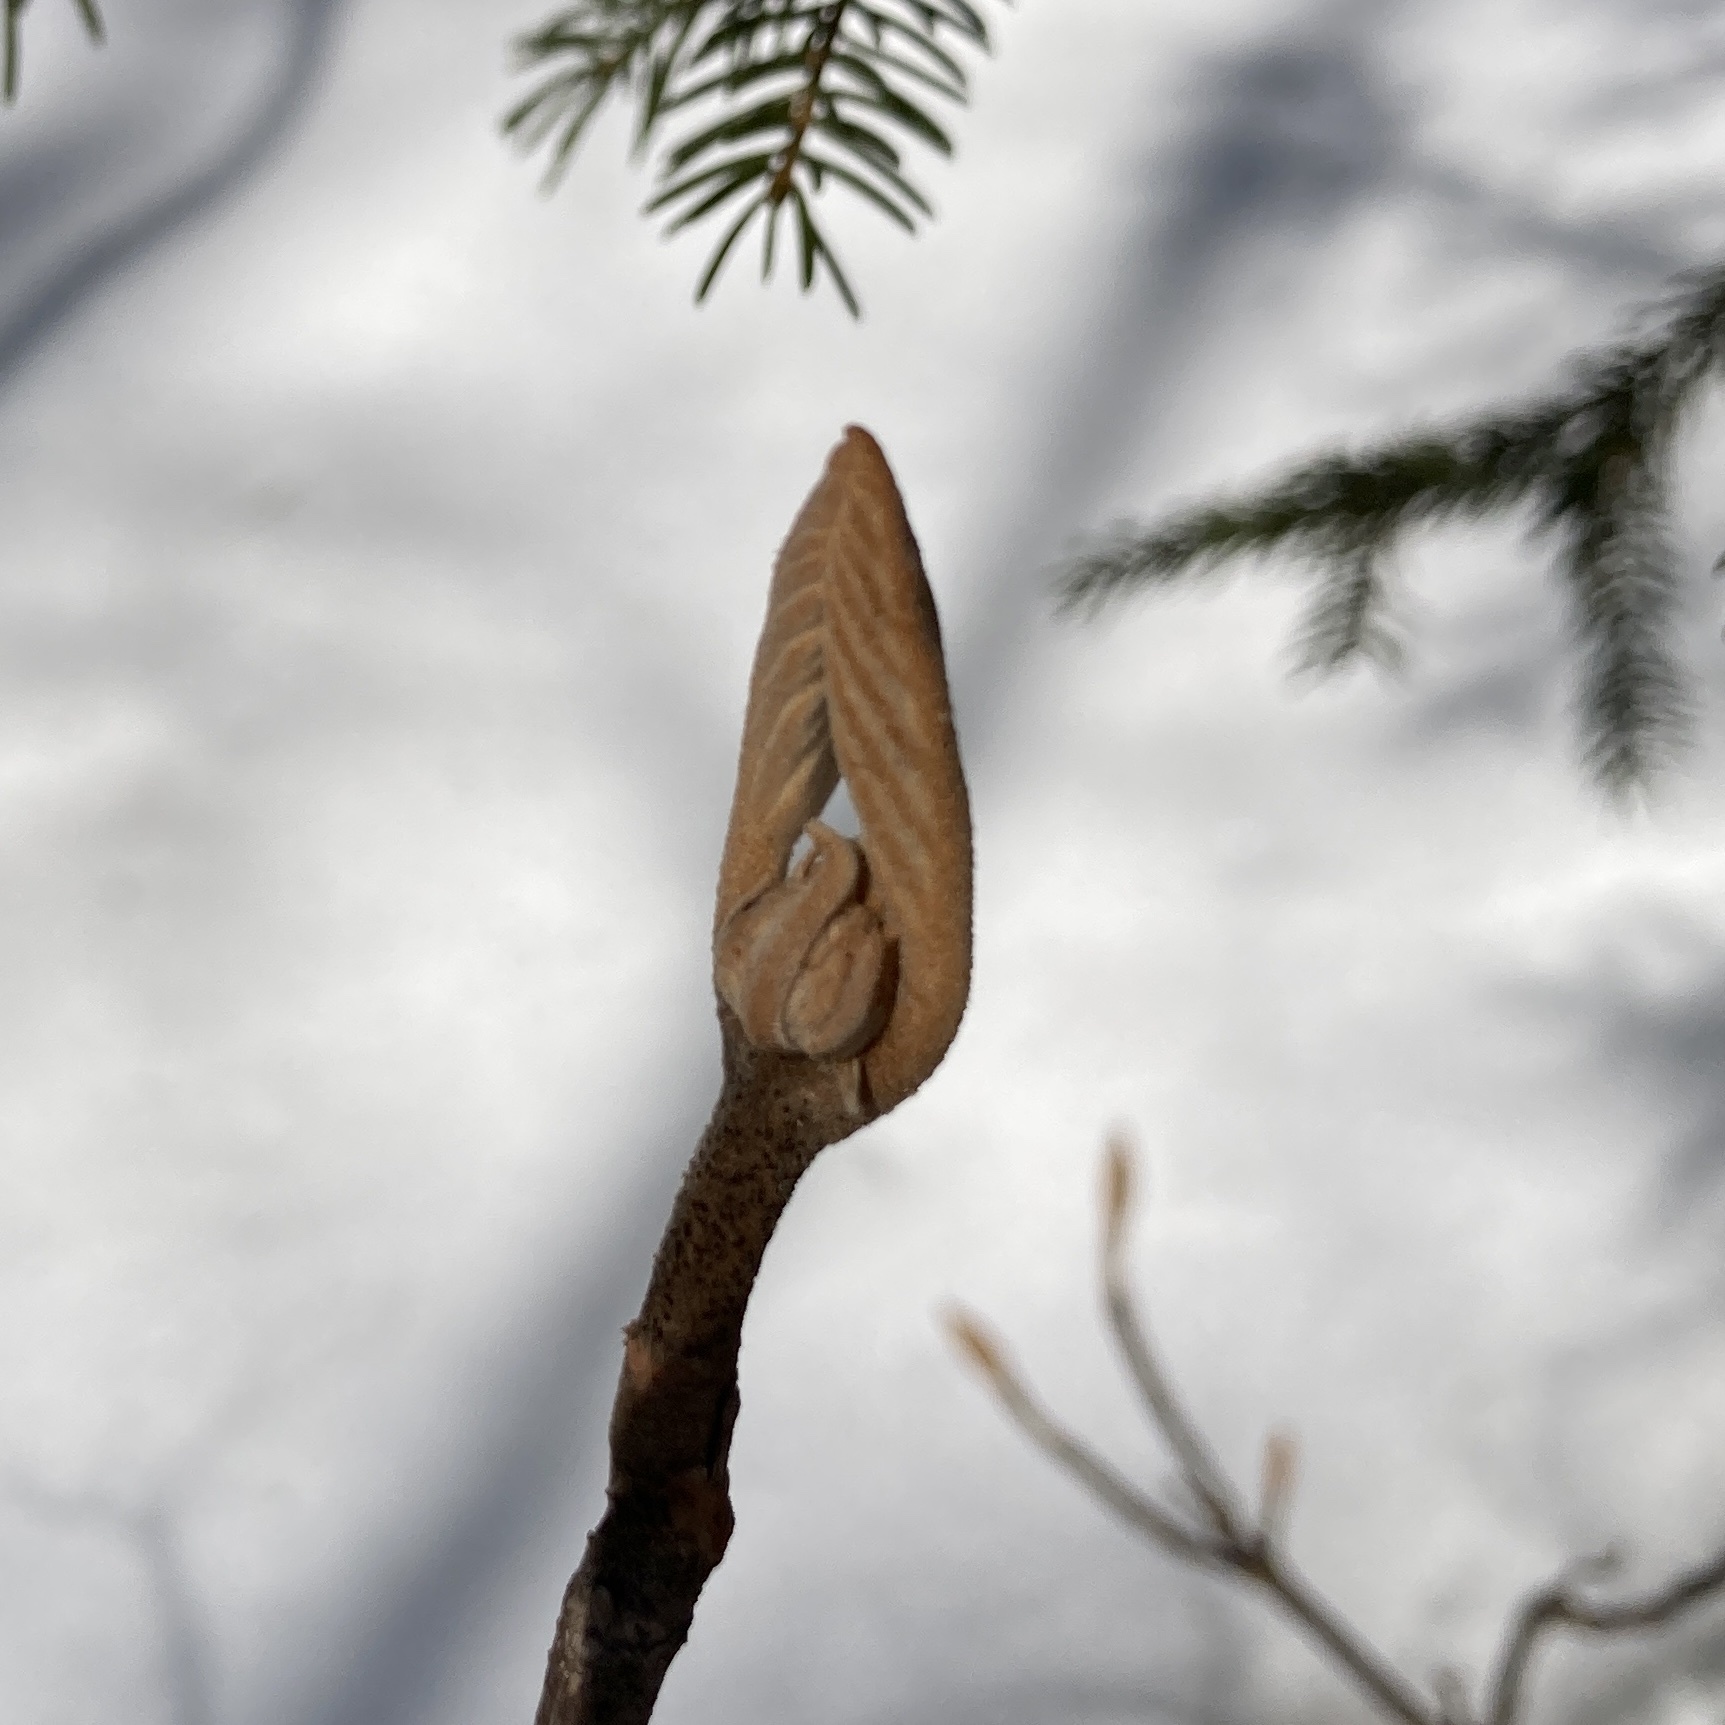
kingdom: Plantae
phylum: Tracheophyta
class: Magnoliopsida
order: Dipsacales
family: Viburnaceae
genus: Viburnum
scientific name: Viburnum lantanoides
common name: Hobblebush
